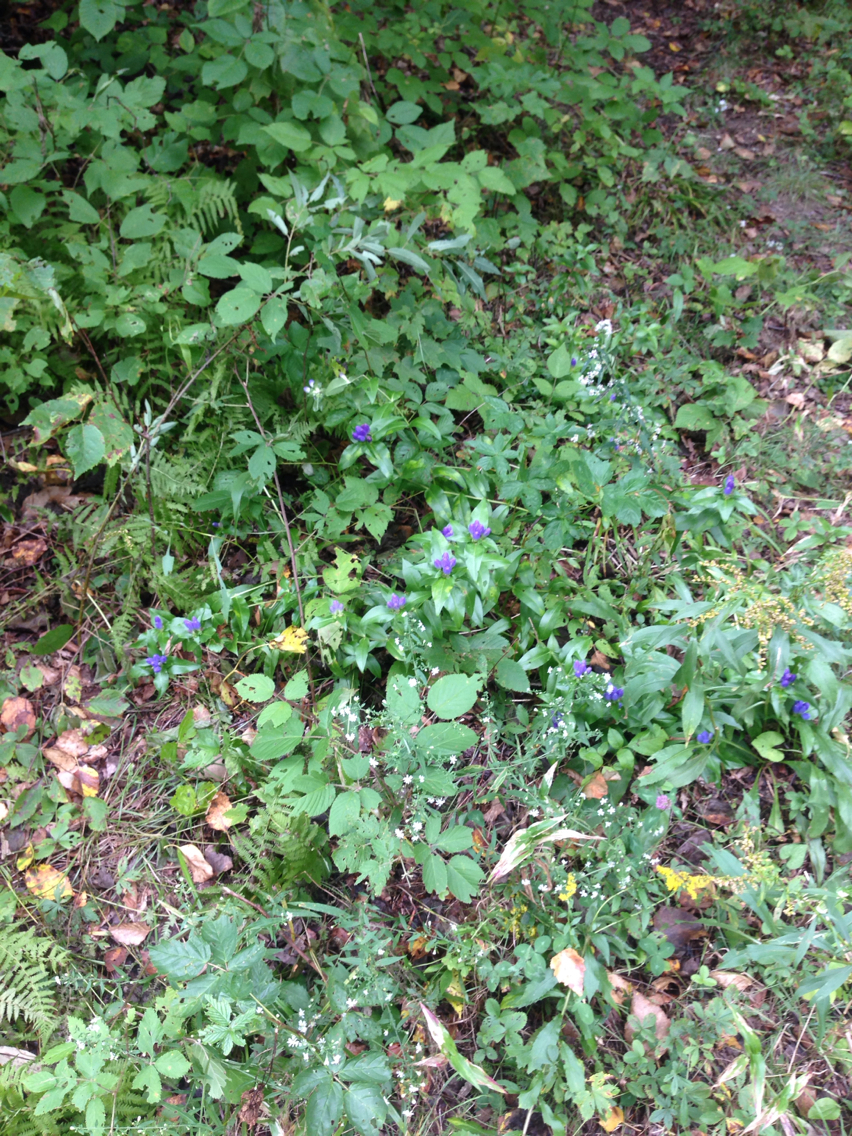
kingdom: Plantae
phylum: Tracheophyta
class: Magnoliopsida
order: Gentianales
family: Gentianaceae
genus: Gentiana
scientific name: Gentiana clausa
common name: Blind gentian
